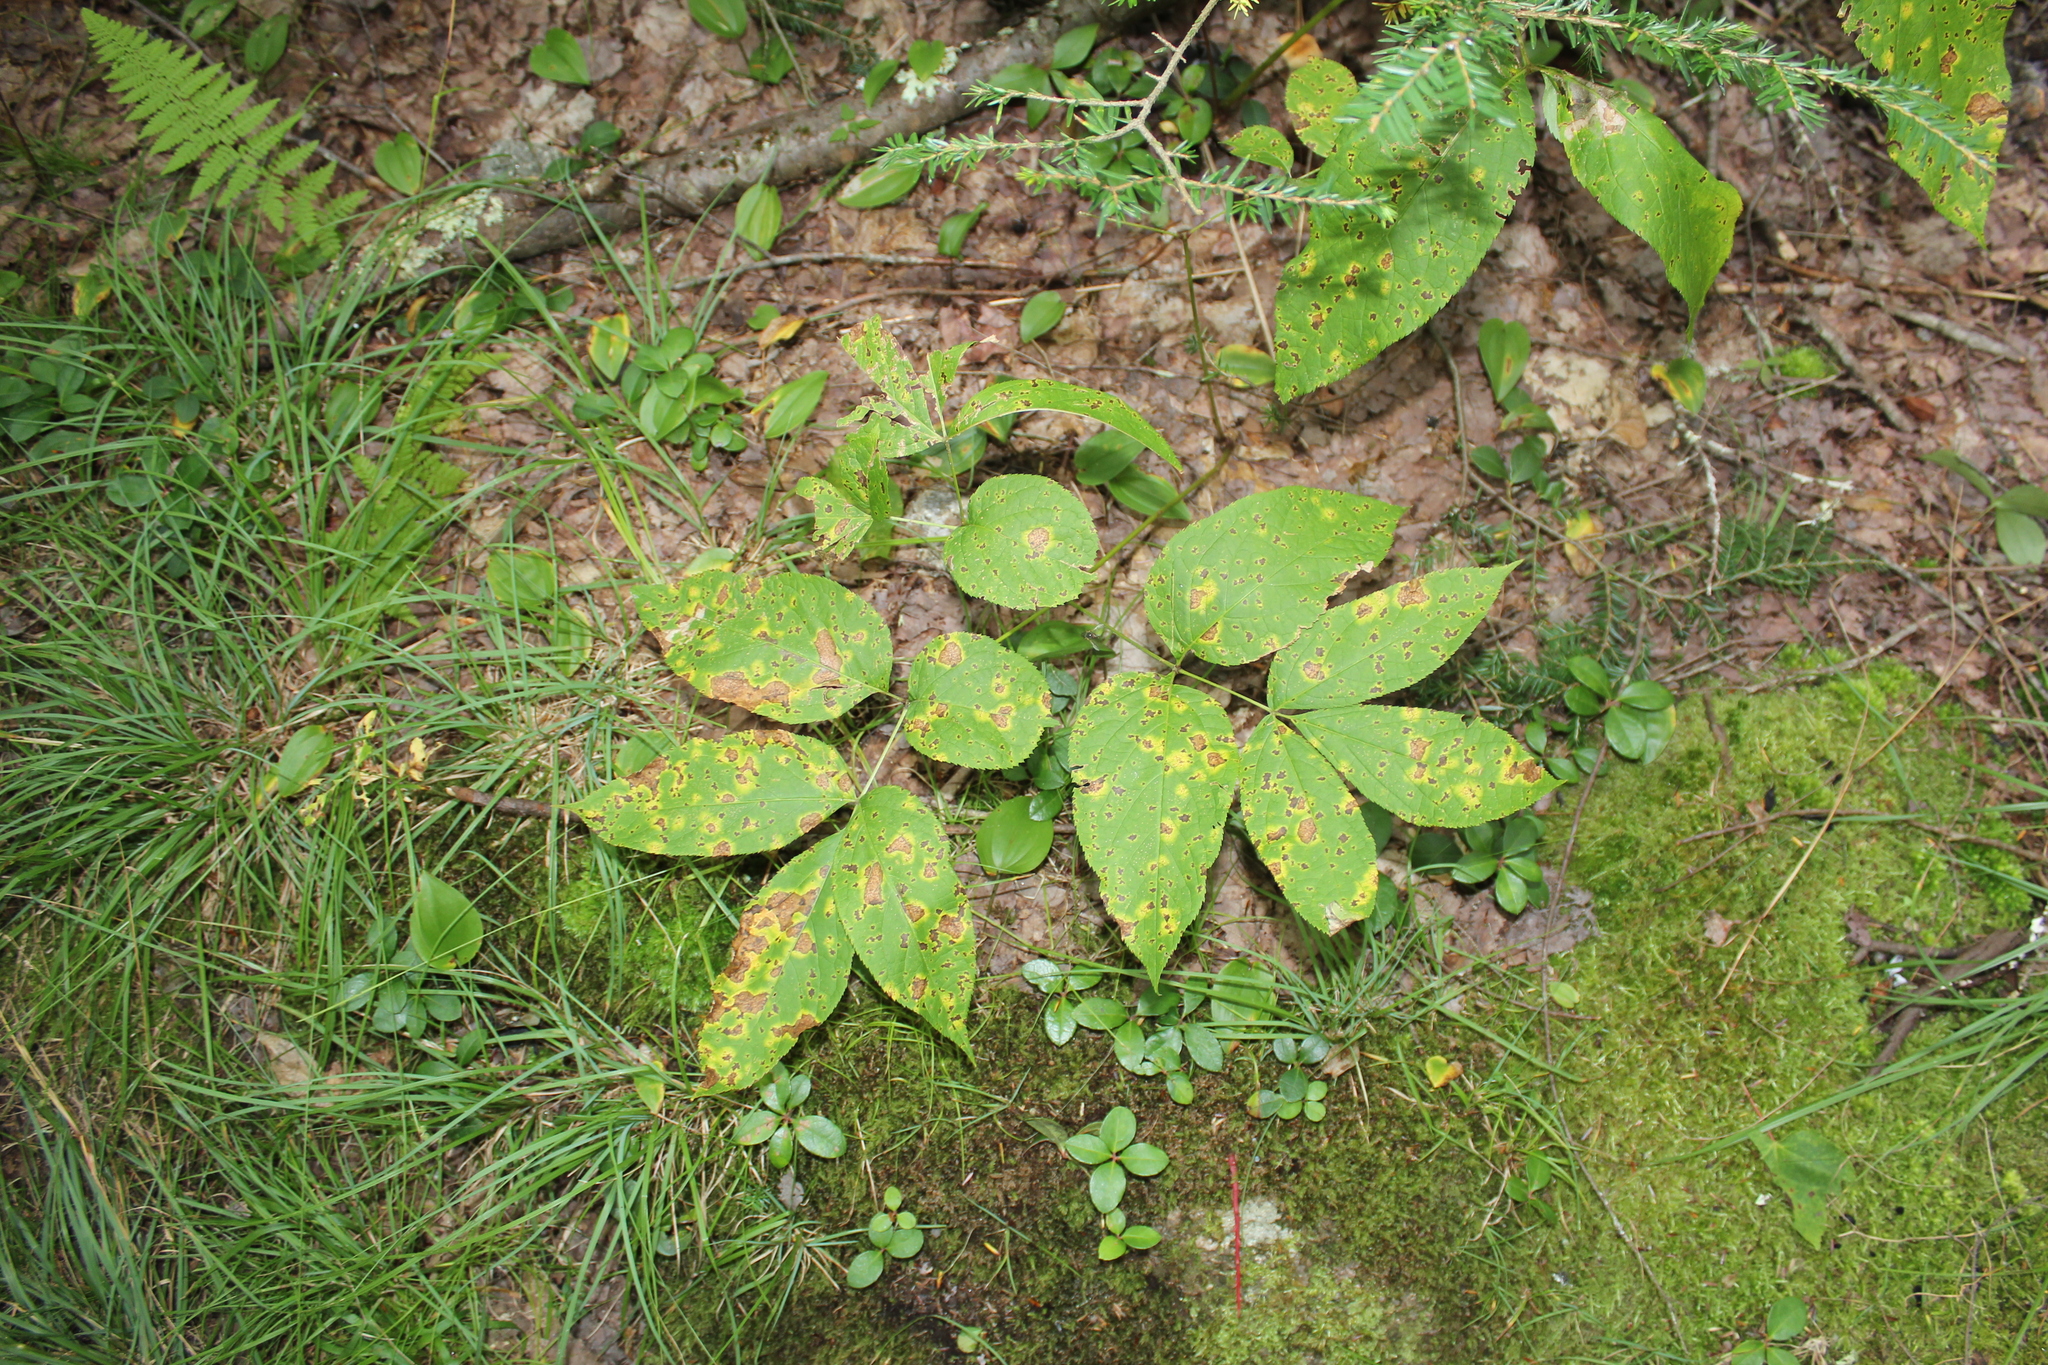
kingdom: Plantae
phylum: Tracheophyta
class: Magnoliopsida
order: Apiales
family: Araliaceae
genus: Aralia
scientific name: Aralia nudicaulis
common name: Wild sarsaparilla
